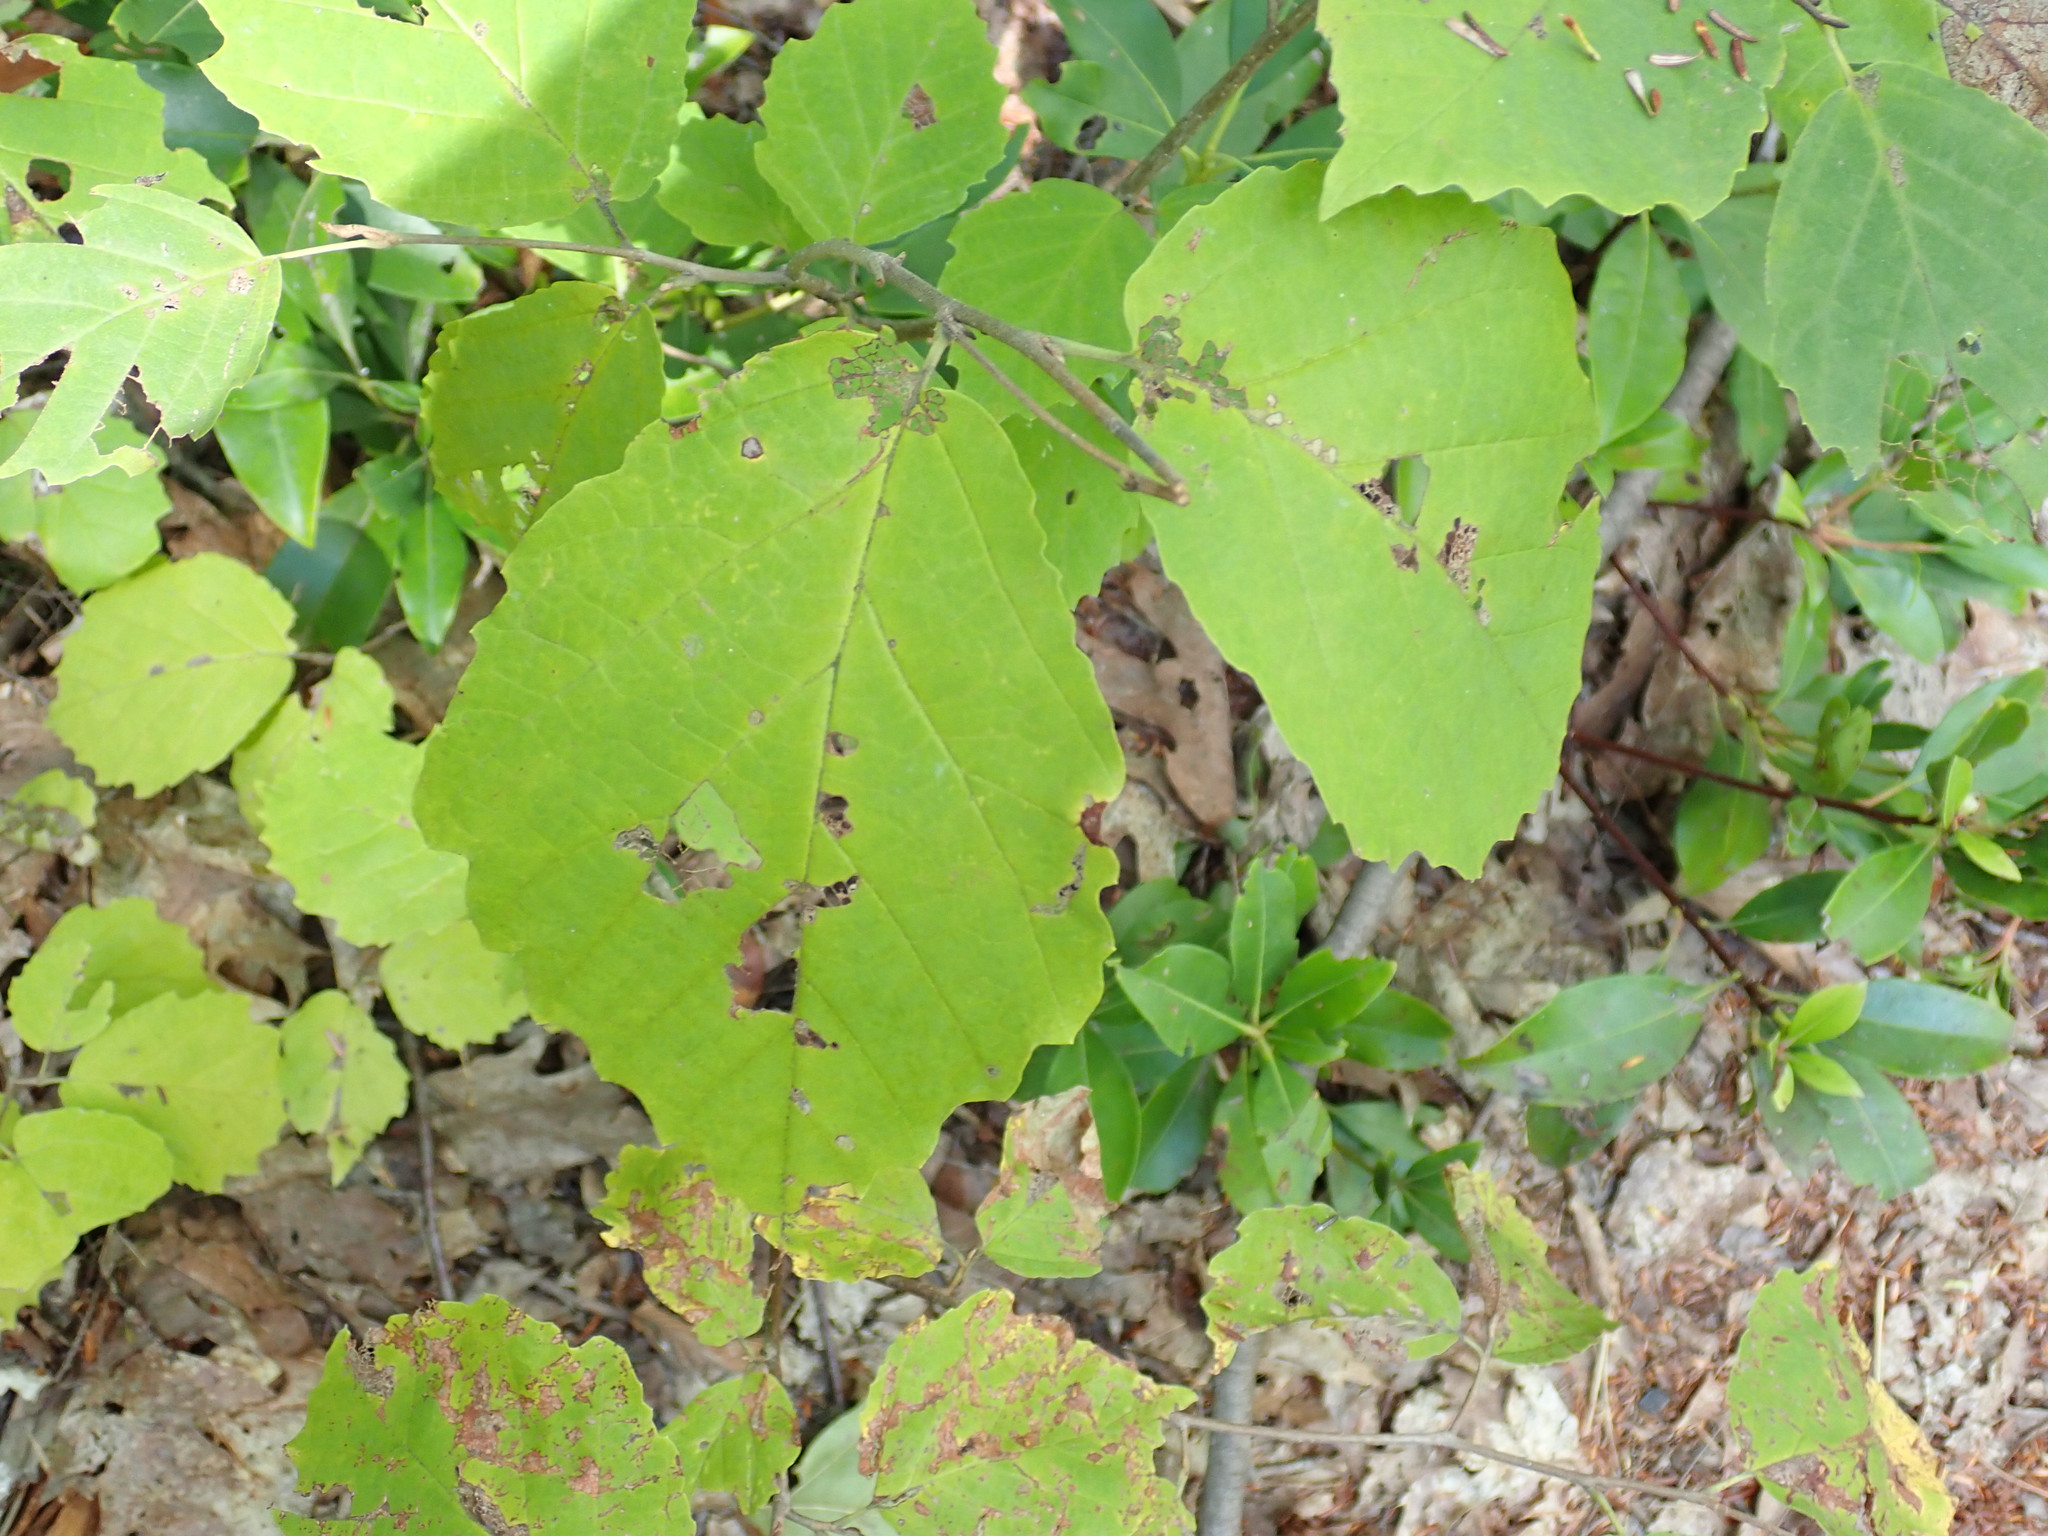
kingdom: Plantae
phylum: Tracheophyta
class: Magnoliopsida
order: Saxifragales
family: Hamamelidaceae
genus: Hamamelis
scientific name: Hamamelis virginiana
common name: Witch-hazel
